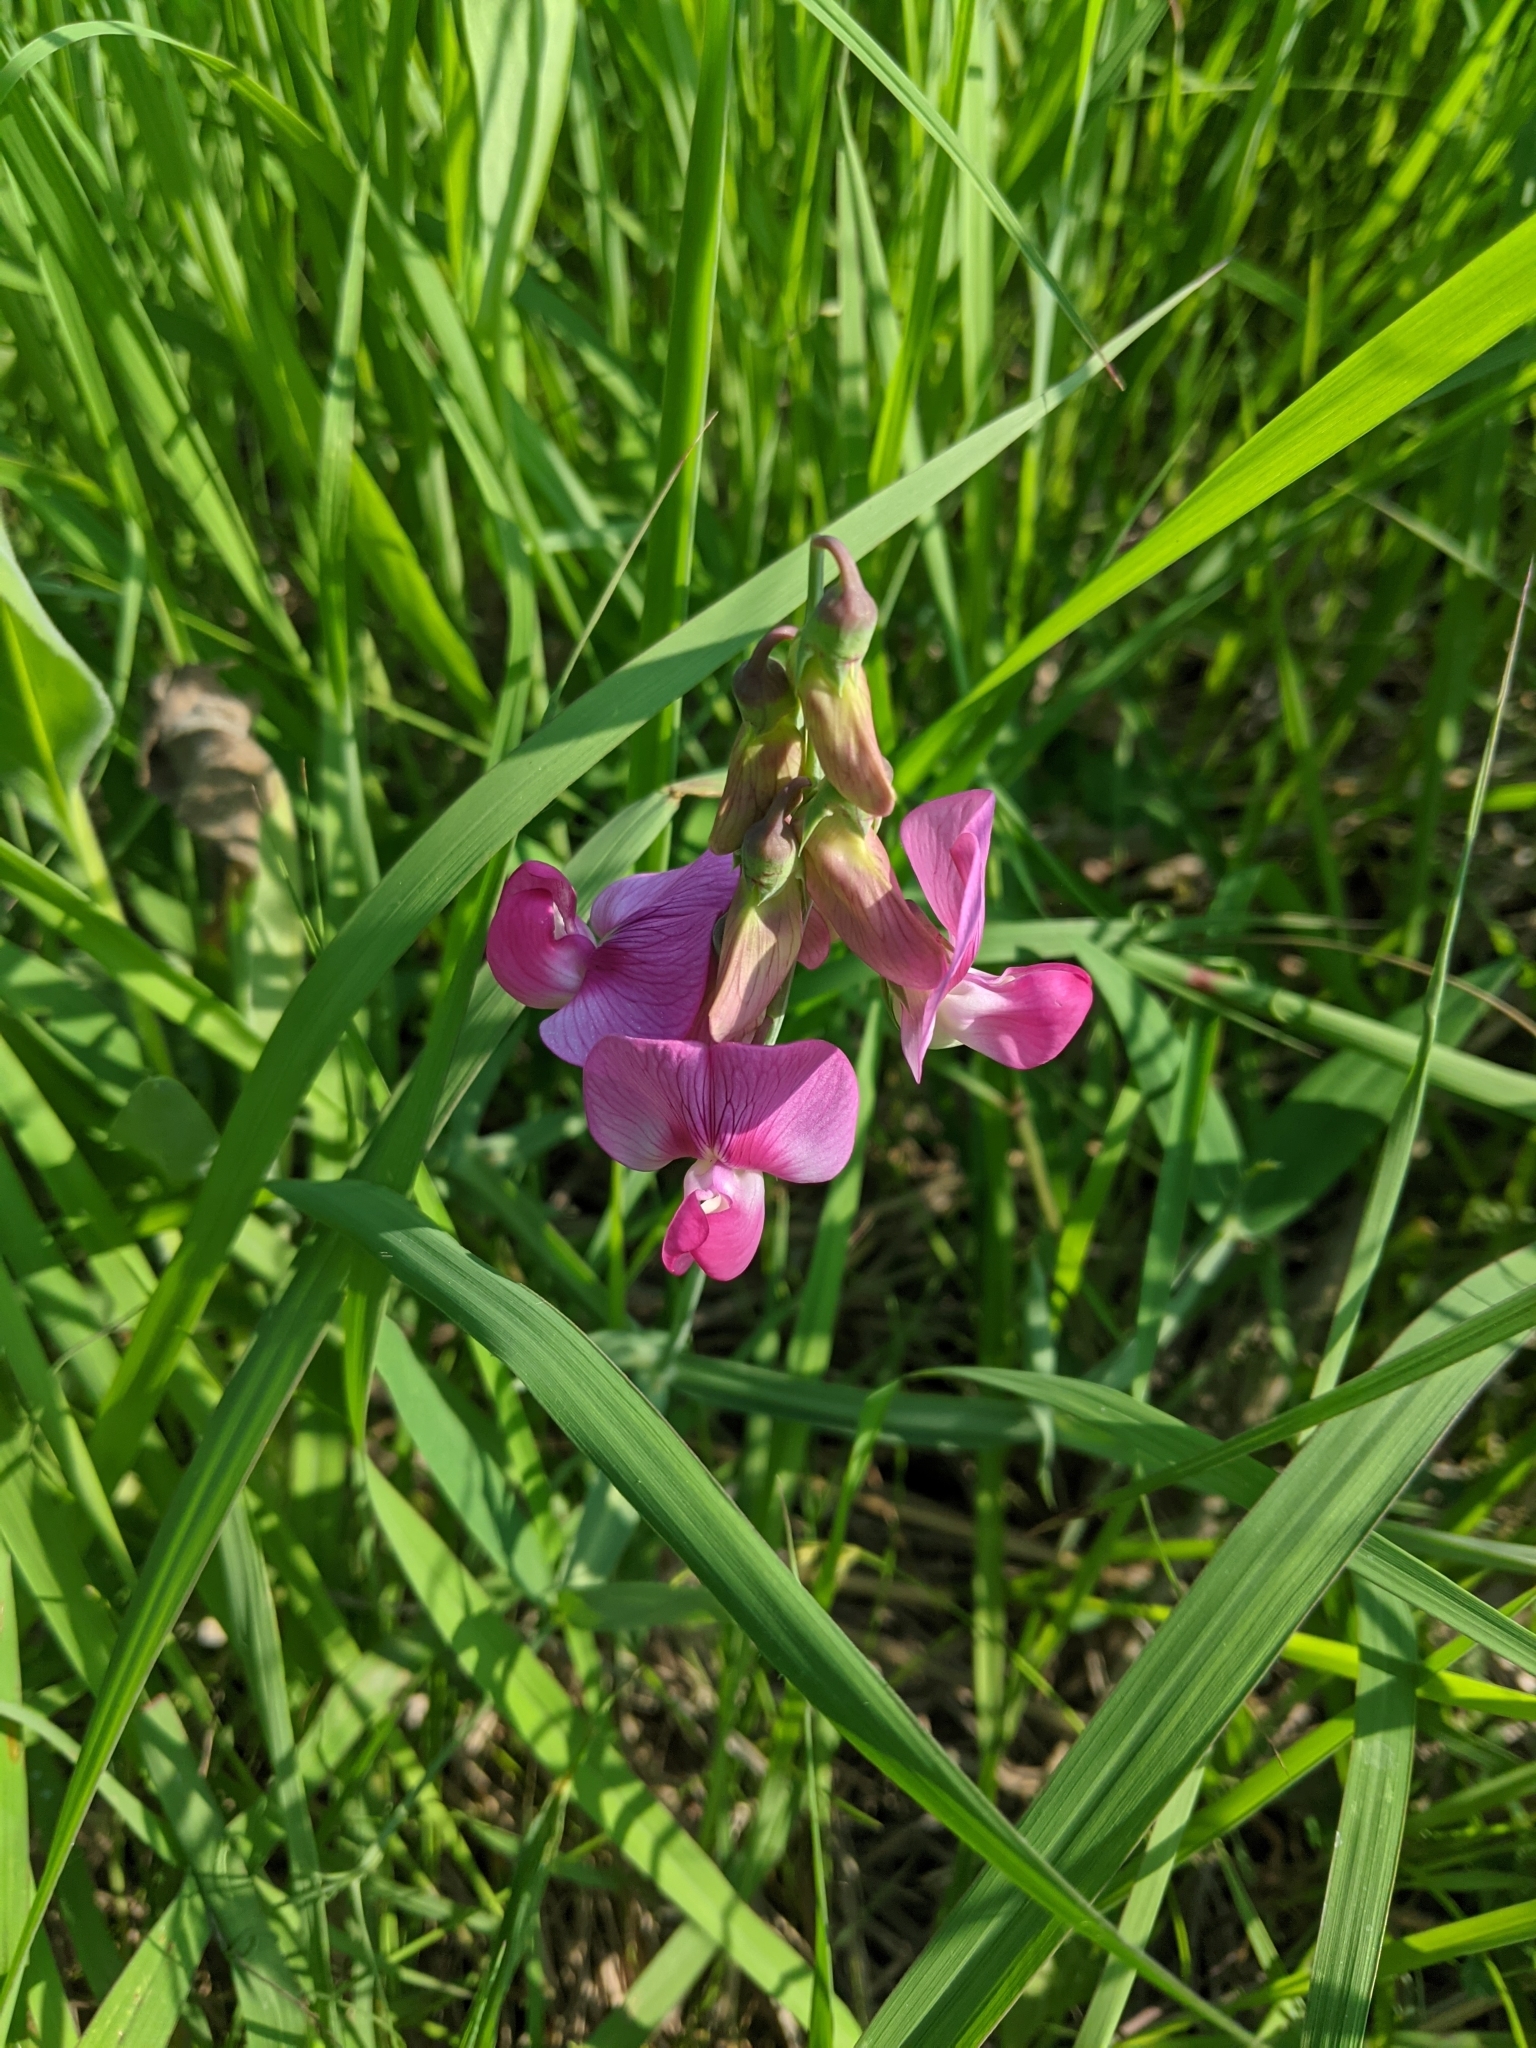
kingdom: Plantae
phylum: Tracheophyta
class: Magnoliopsida
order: Fabales
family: Fabaceae
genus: Lathyrus
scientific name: Lathyrus latifolius
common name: Perennial pea
